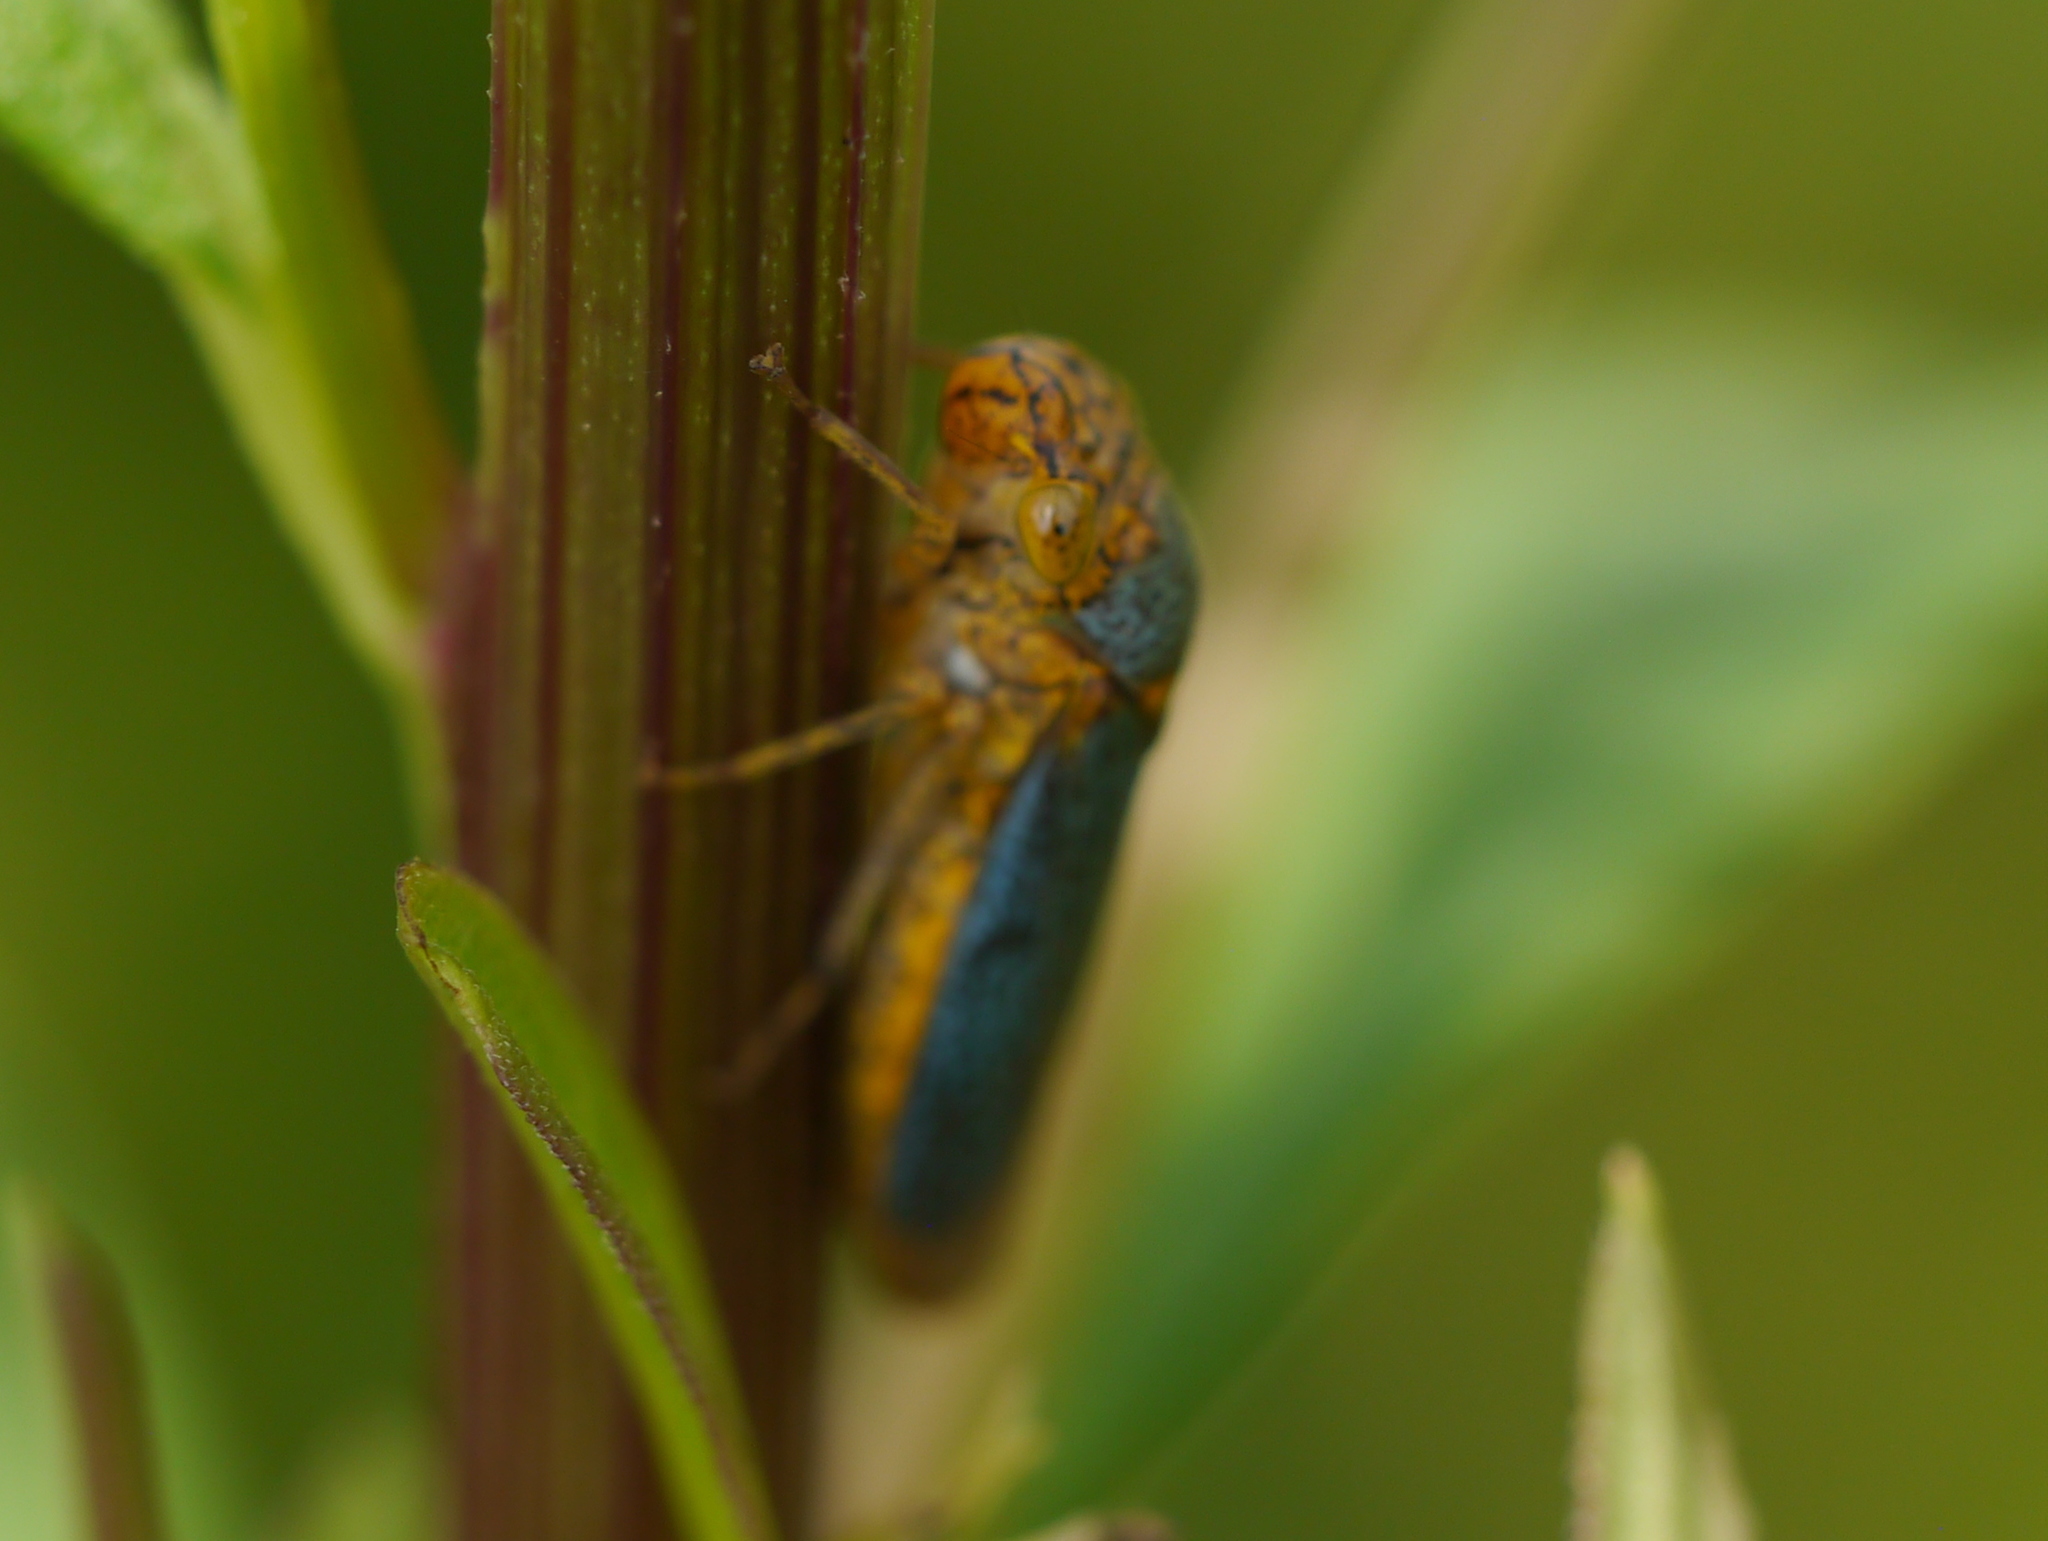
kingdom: Animalia
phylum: Arthropoda
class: Insecta
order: Hemiptera
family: Cicadellidae
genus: Oncometopia
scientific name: Oncometopia orbona
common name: Broad-headed sharpshooter
